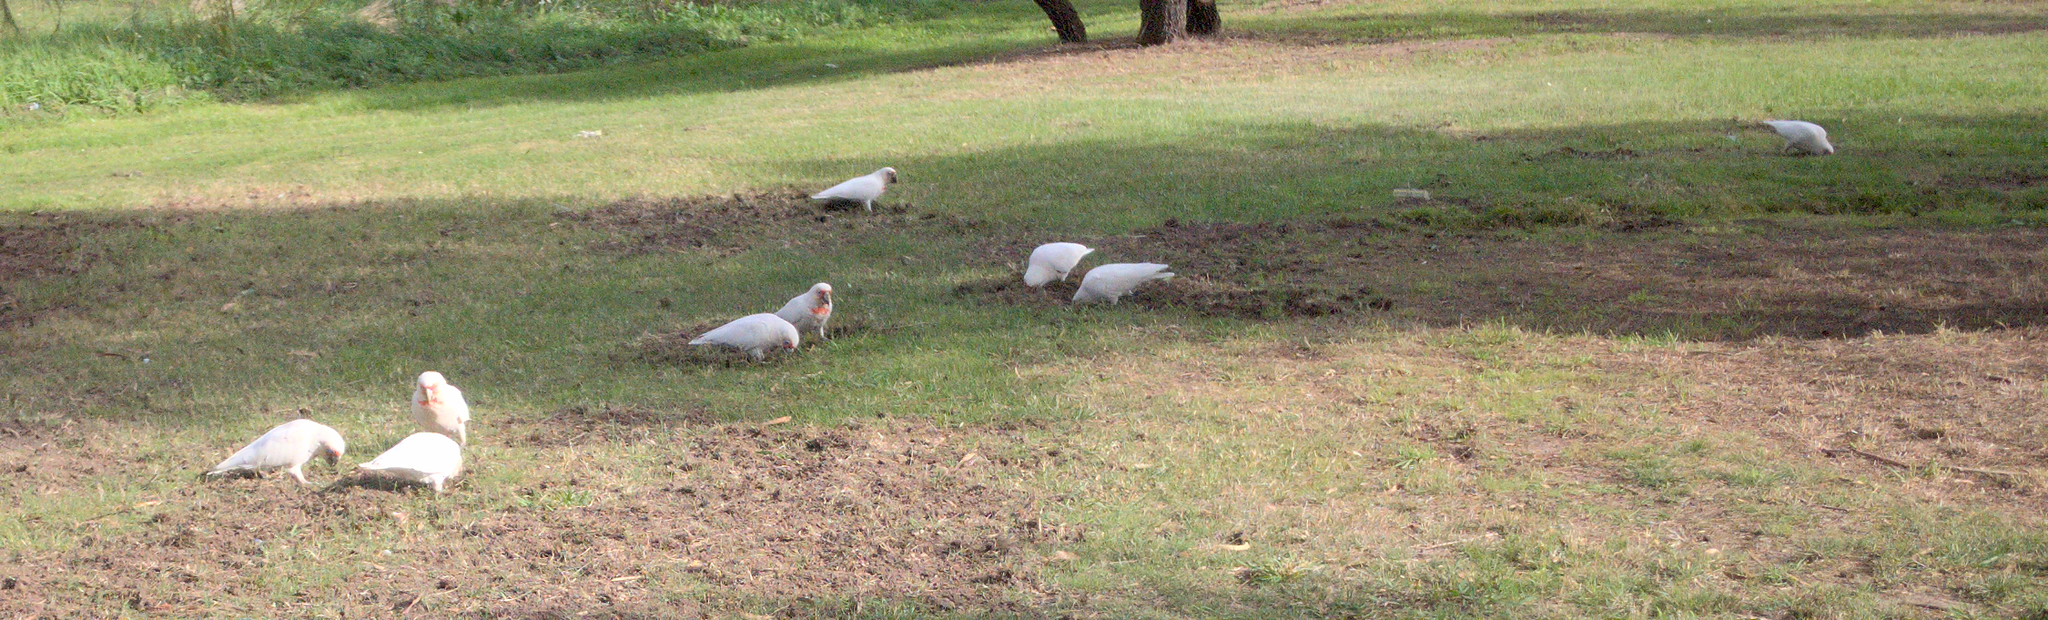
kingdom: Animalia
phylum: Chordata
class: Aves
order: Psittaciformes
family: Psittacidae
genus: Cacatua
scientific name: Cacatua tenuirostris
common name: Long-billed corella
